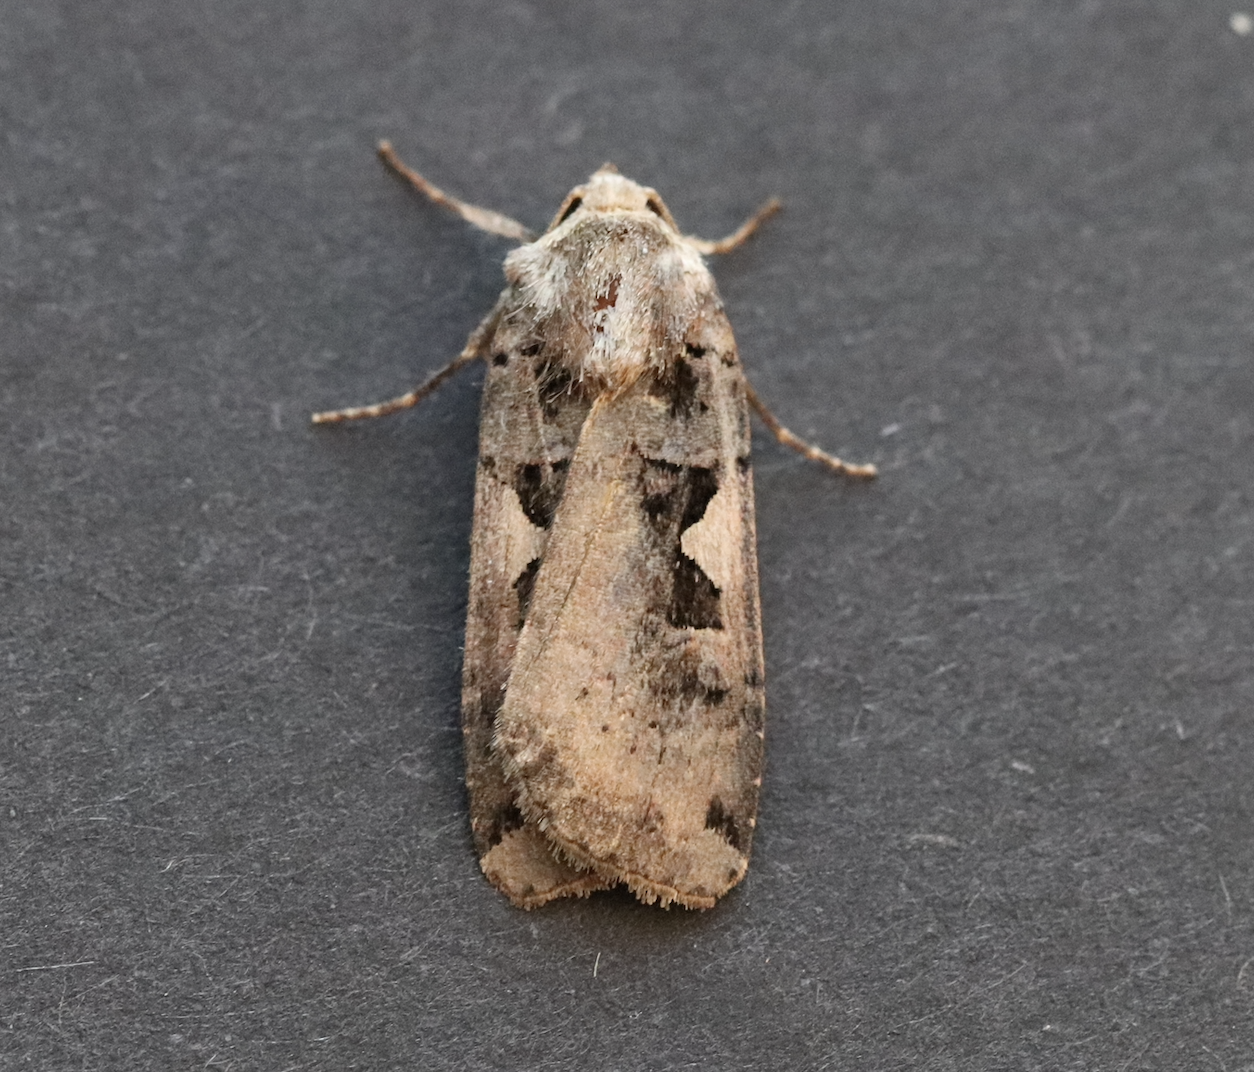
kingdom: Animalia
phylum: Arthropoda
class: Insecta
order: Lepidoptera
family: Noctuidae
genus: Xestia
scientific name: Xestia c-nigrum
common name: Setaceous hebrew character
